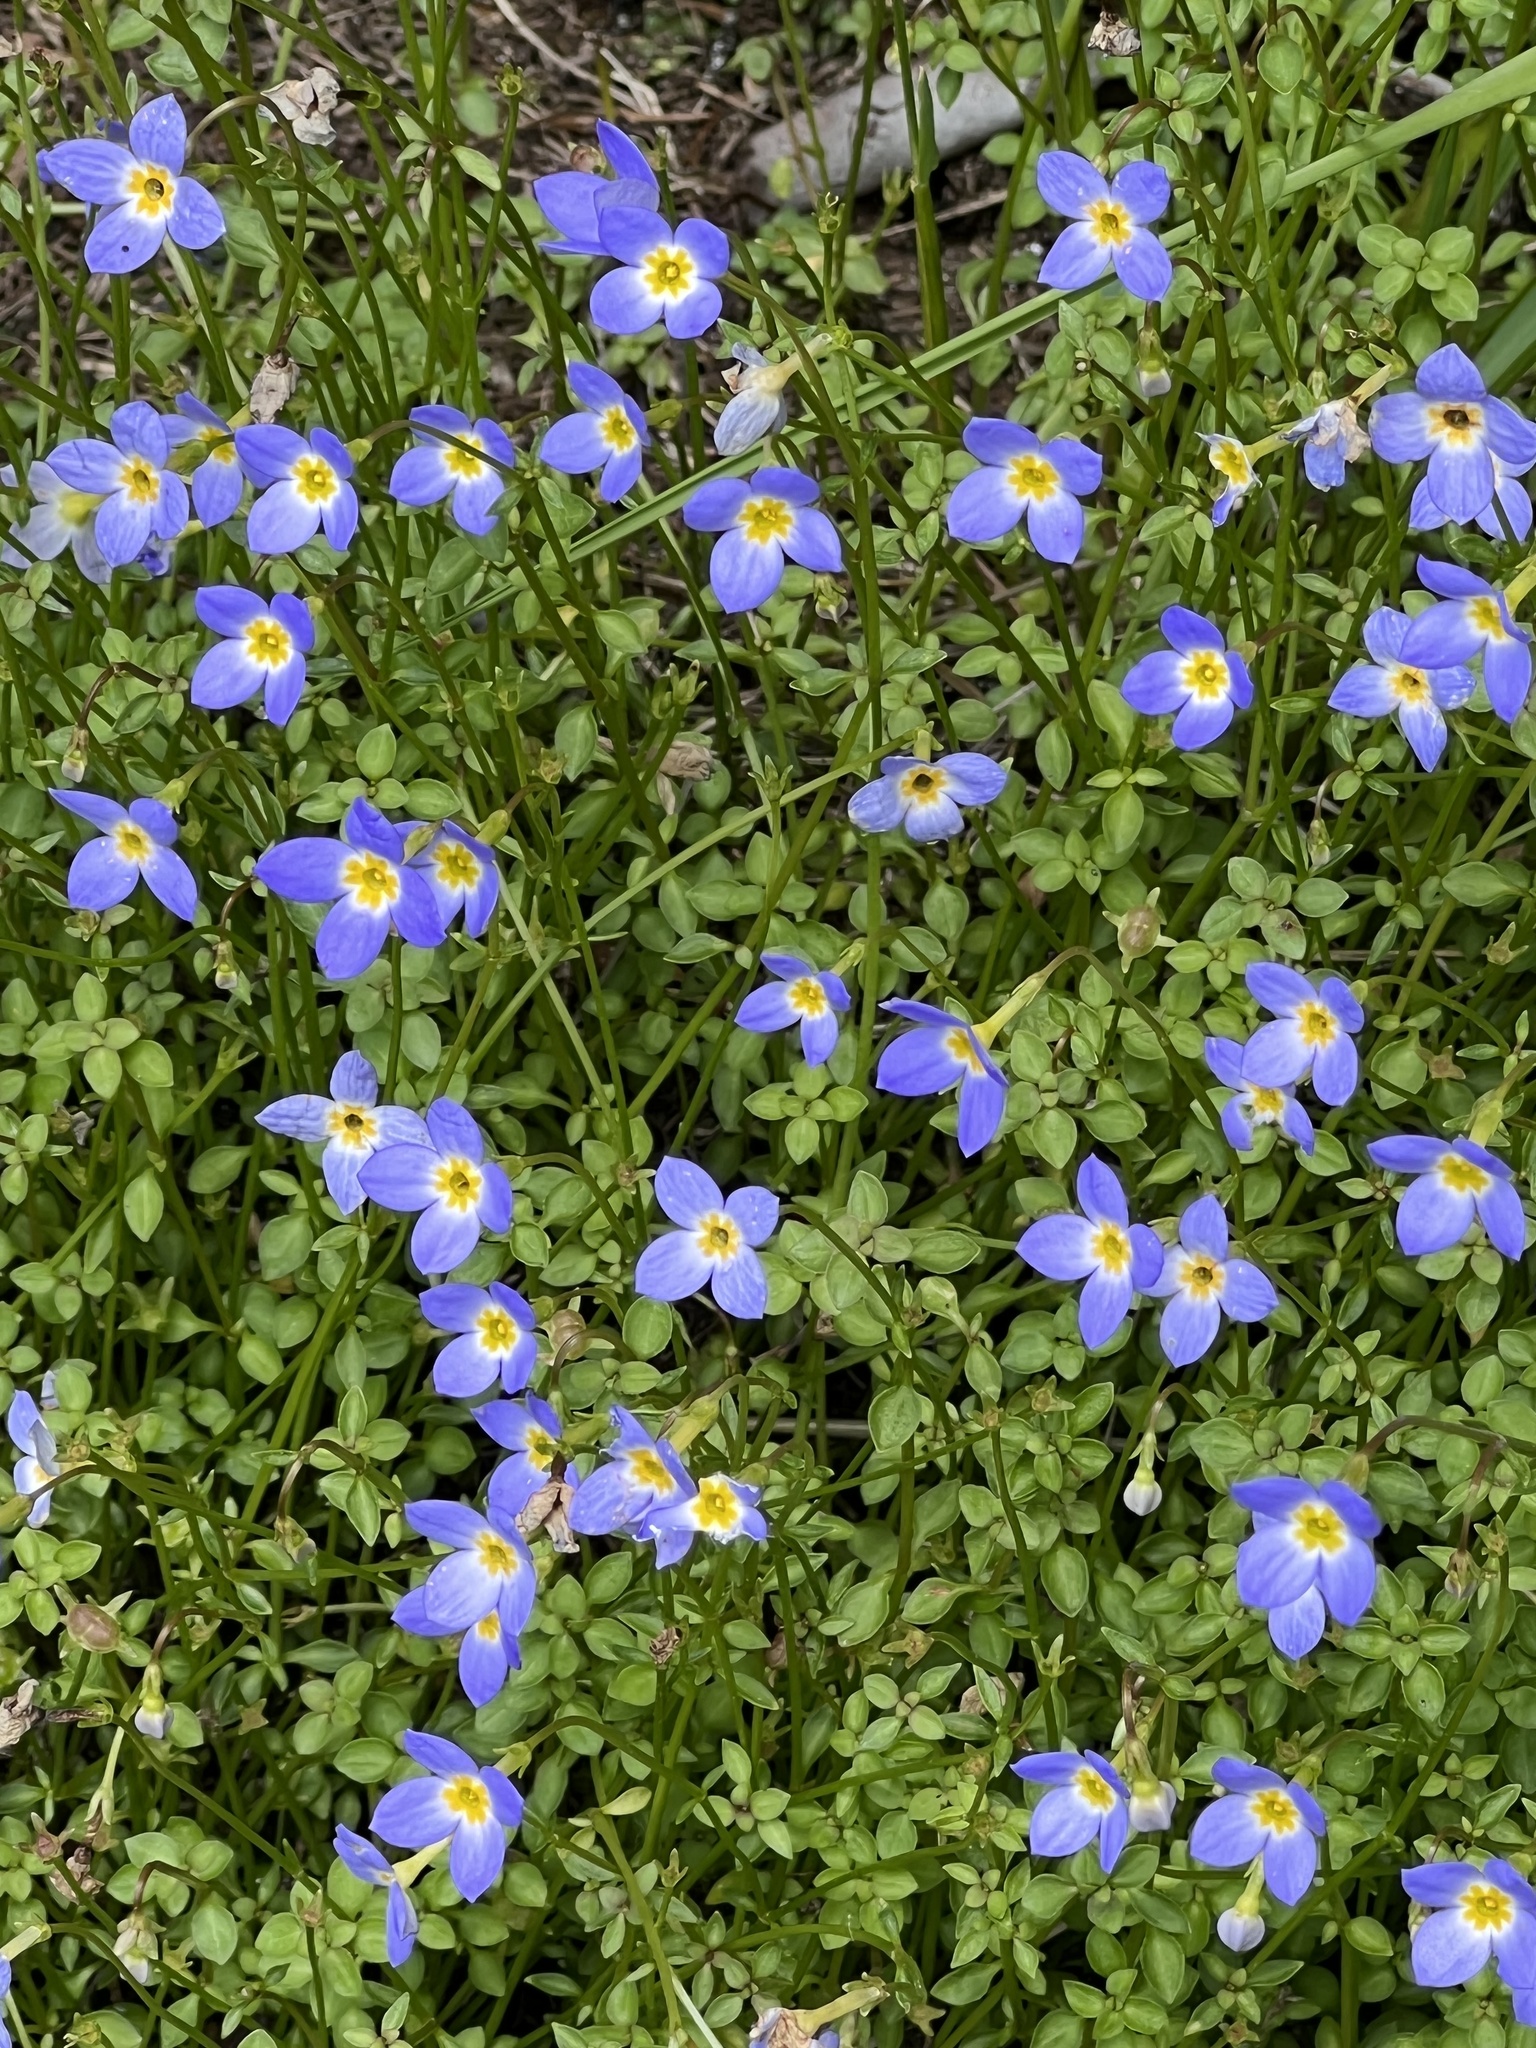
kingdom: Plantae
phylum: Tracheophyta
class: Magnoliopsida
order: Gentianales
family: Rubiaceae
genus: Houstonia
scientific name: Houstonia serpyllifolia
